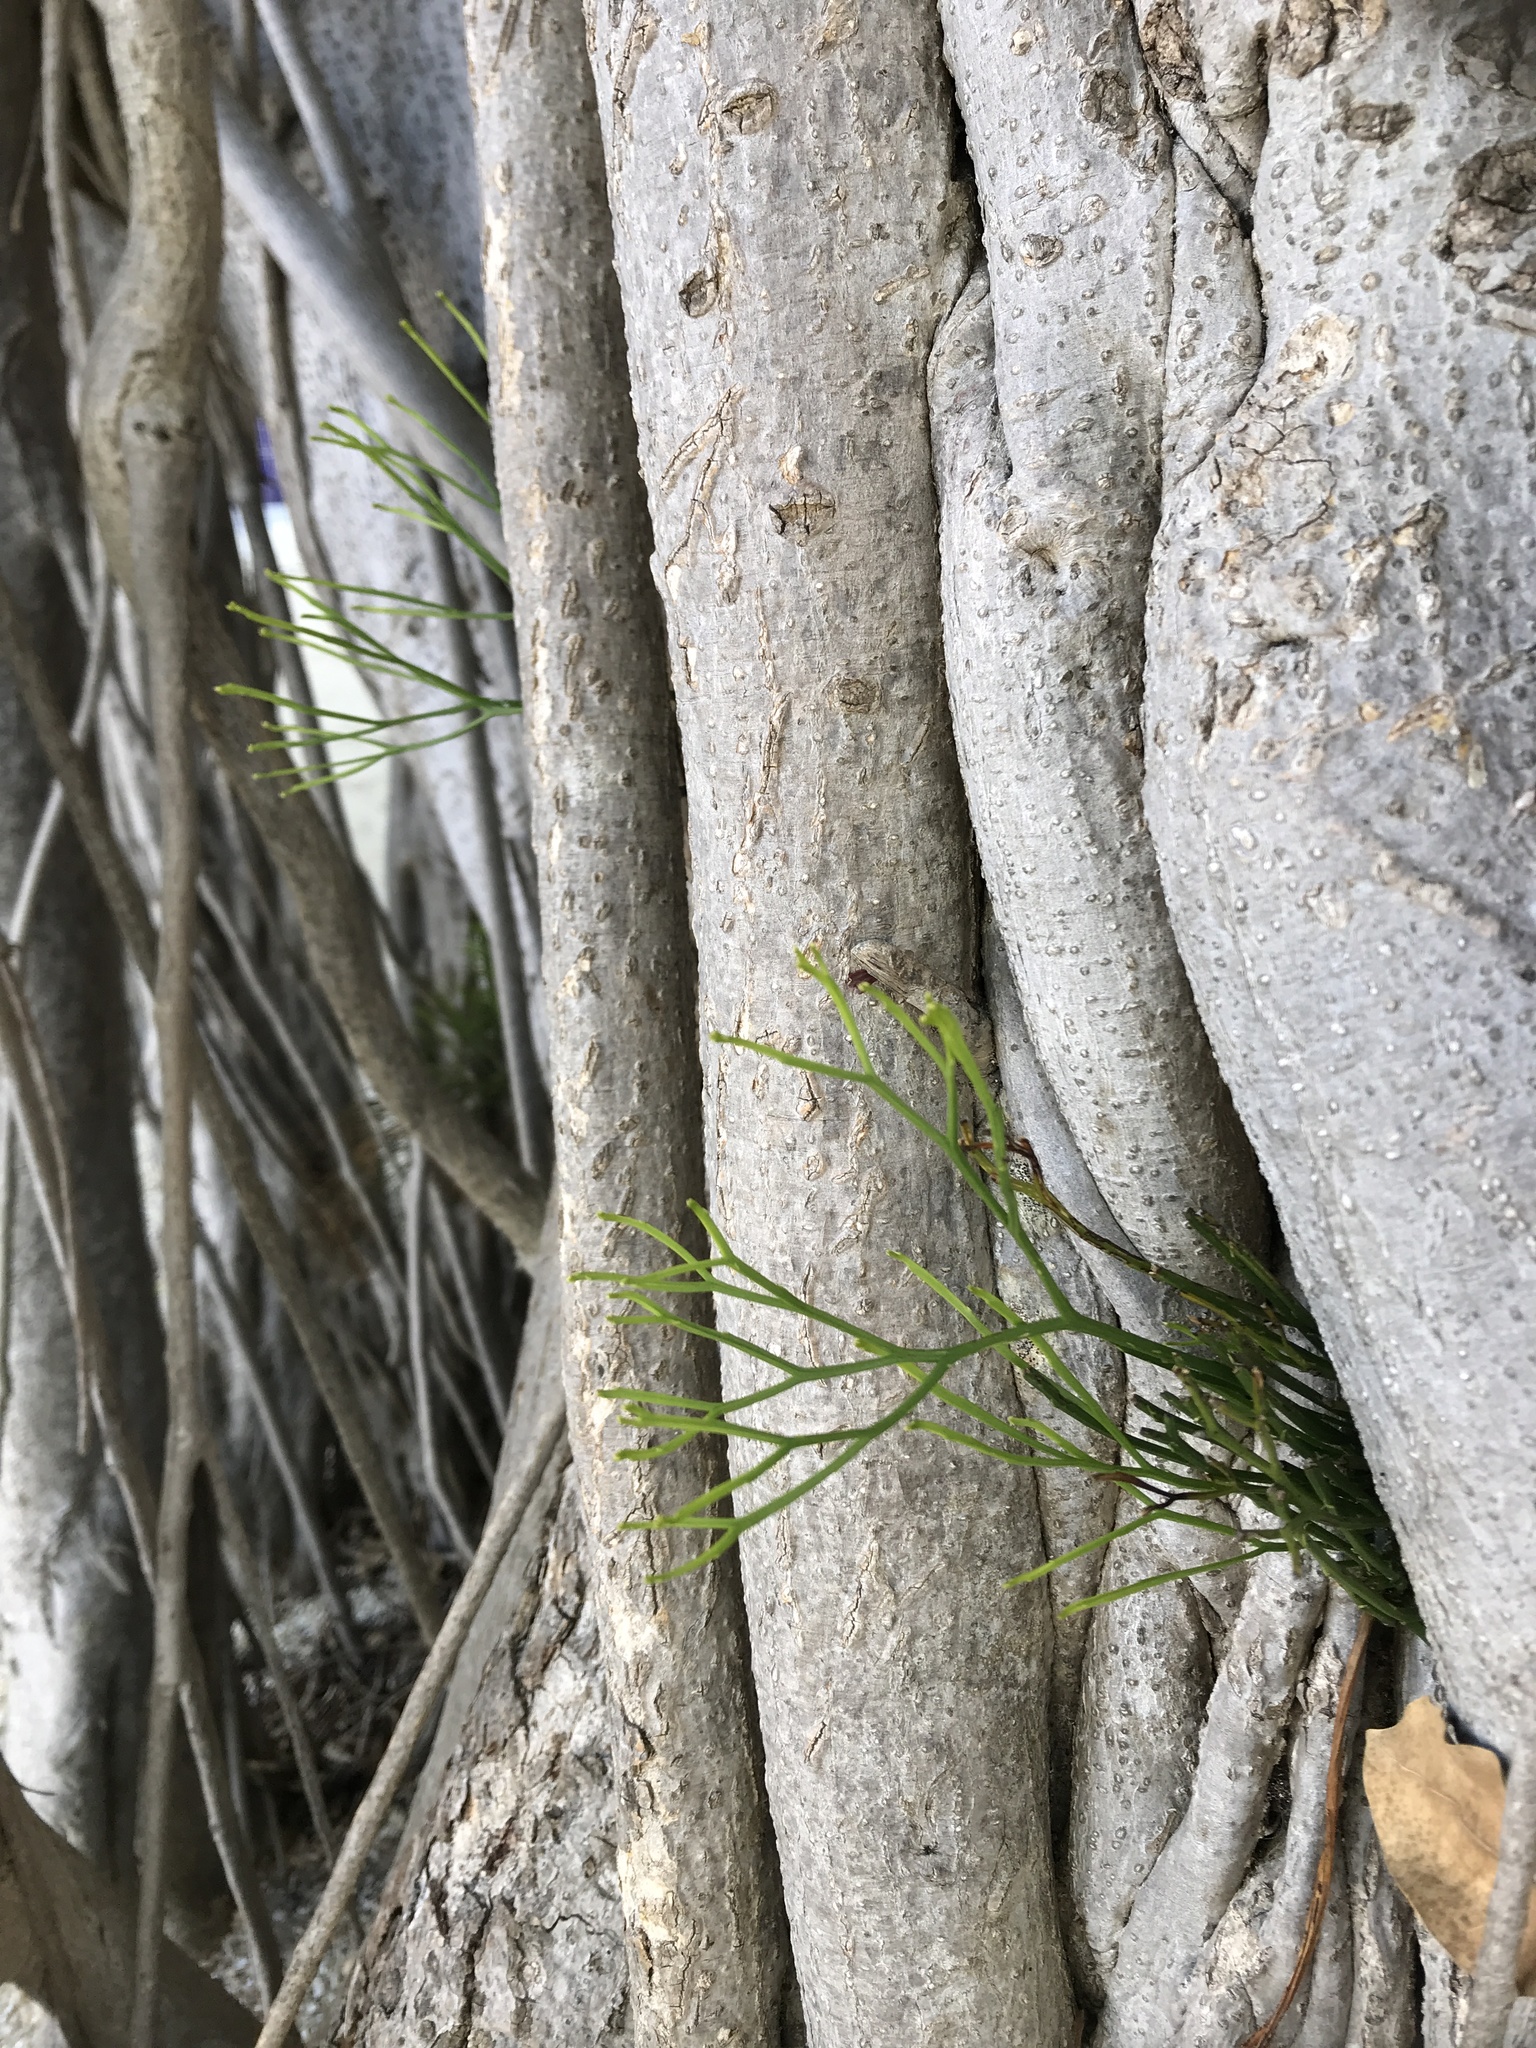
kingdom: Plantae
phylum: Tracheophyta
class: Polypodiopsida
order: Psilotales
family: Psilotaceae
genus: Psilotum
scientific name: Psilotum nudum
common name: Skeleton fork fern
